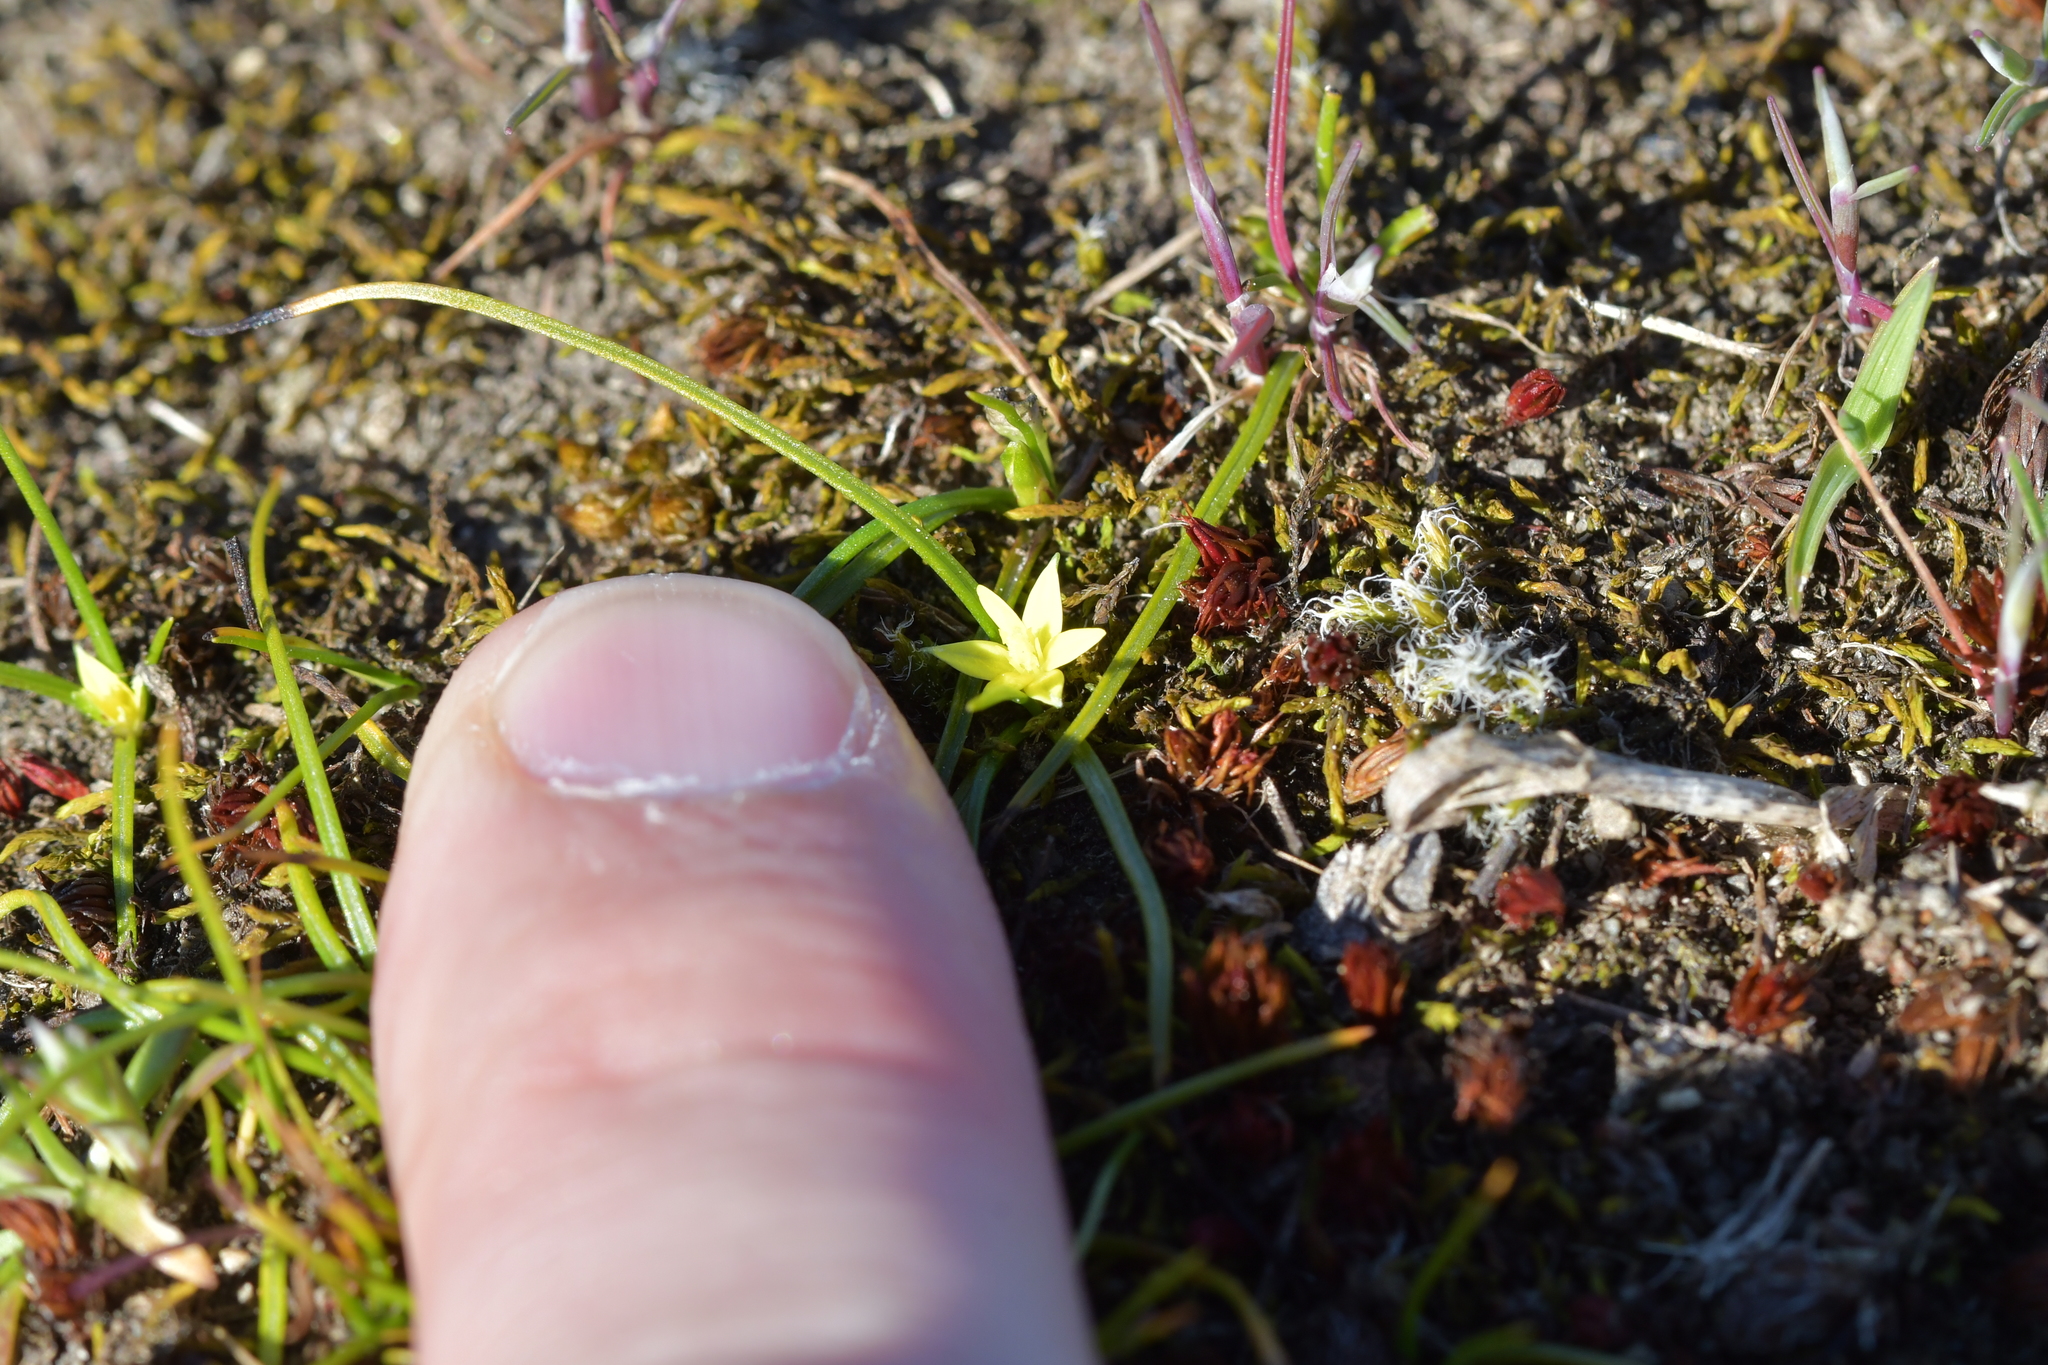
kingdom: Plantae
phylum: Tracheophyta
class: Liliopsida
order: Asparagales
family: Hypoxidaceae
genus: Pauridia
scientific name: Pauridia glabella
